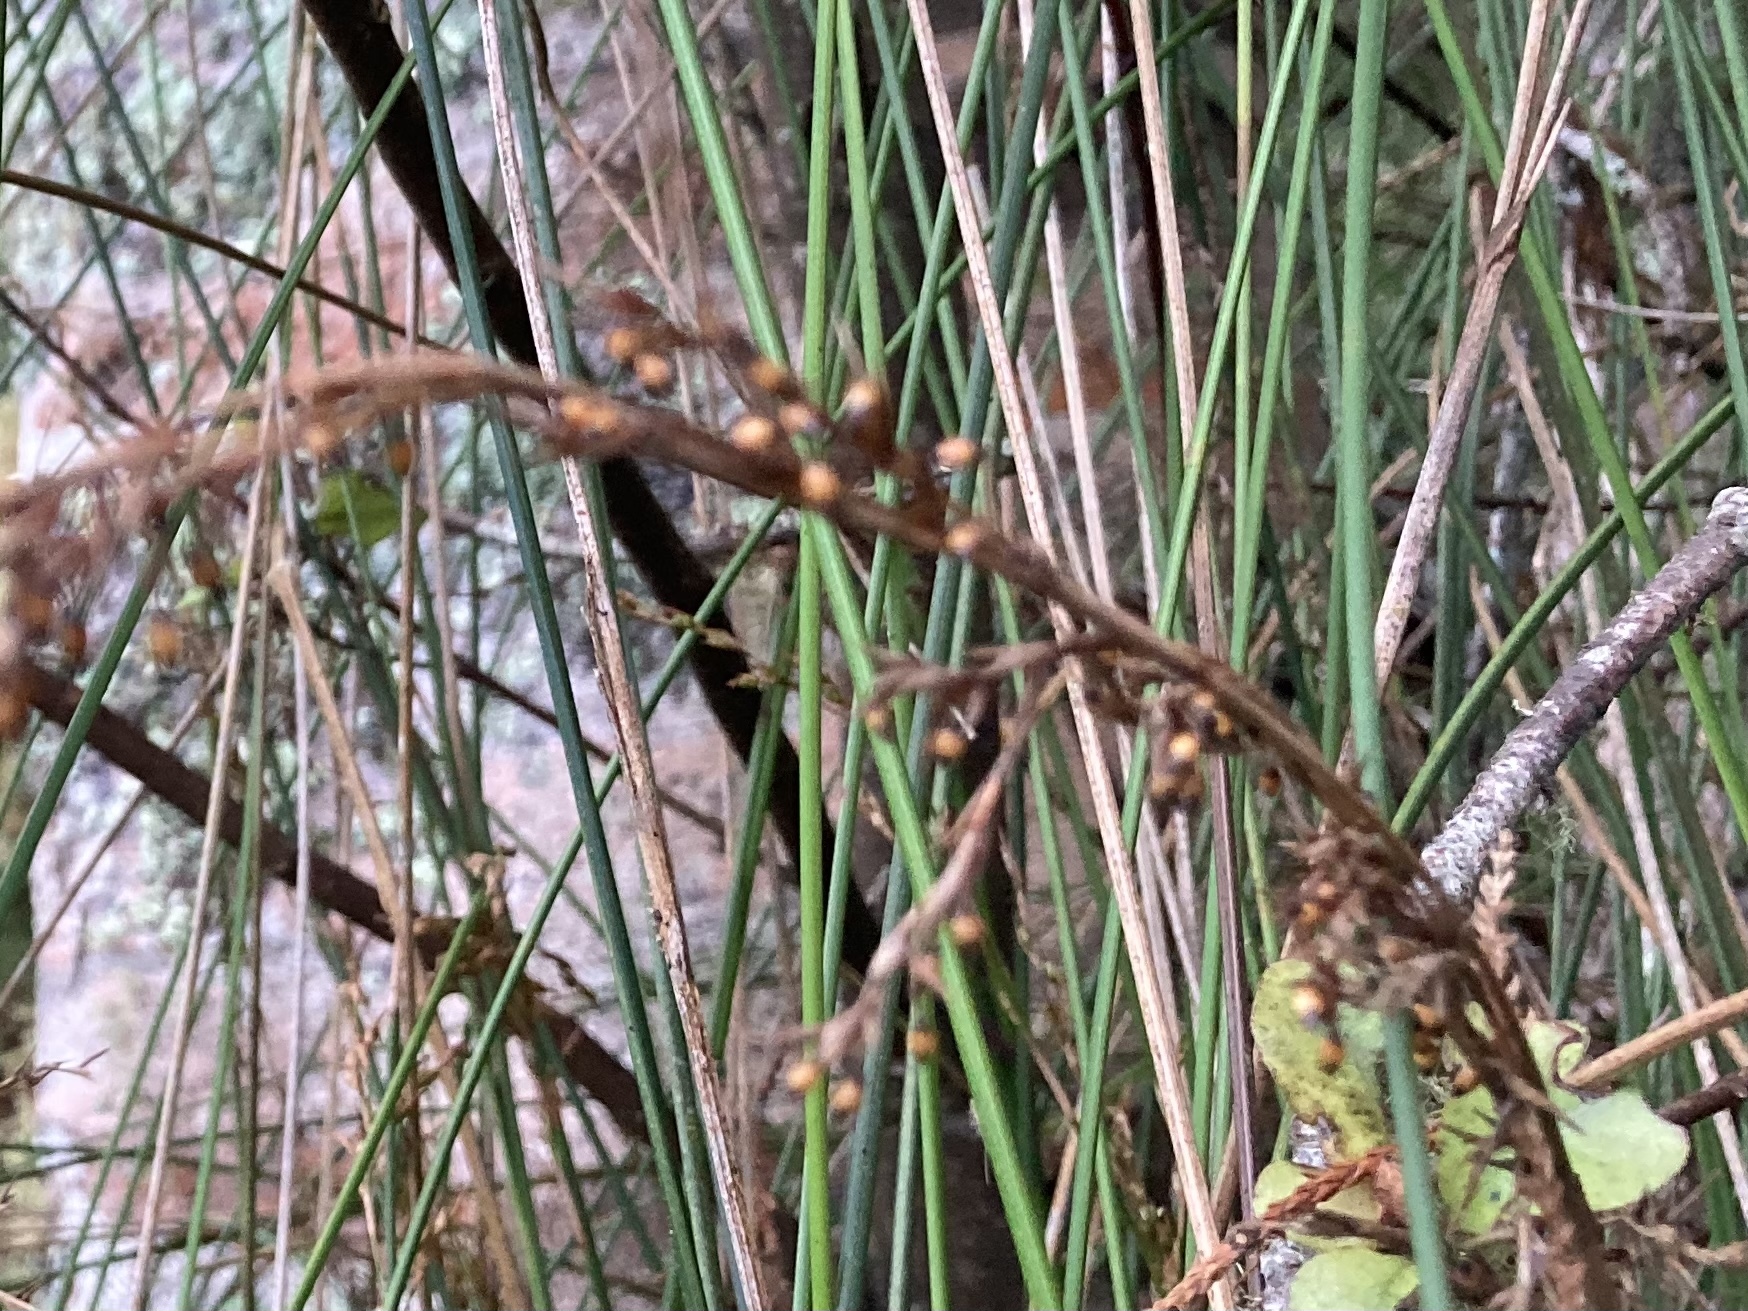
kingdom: Plantae
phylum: Tracheophyta
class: Liliopsida
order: Poales
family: Cyperaceae
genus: Machaerina
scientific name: Machaerina tenax
